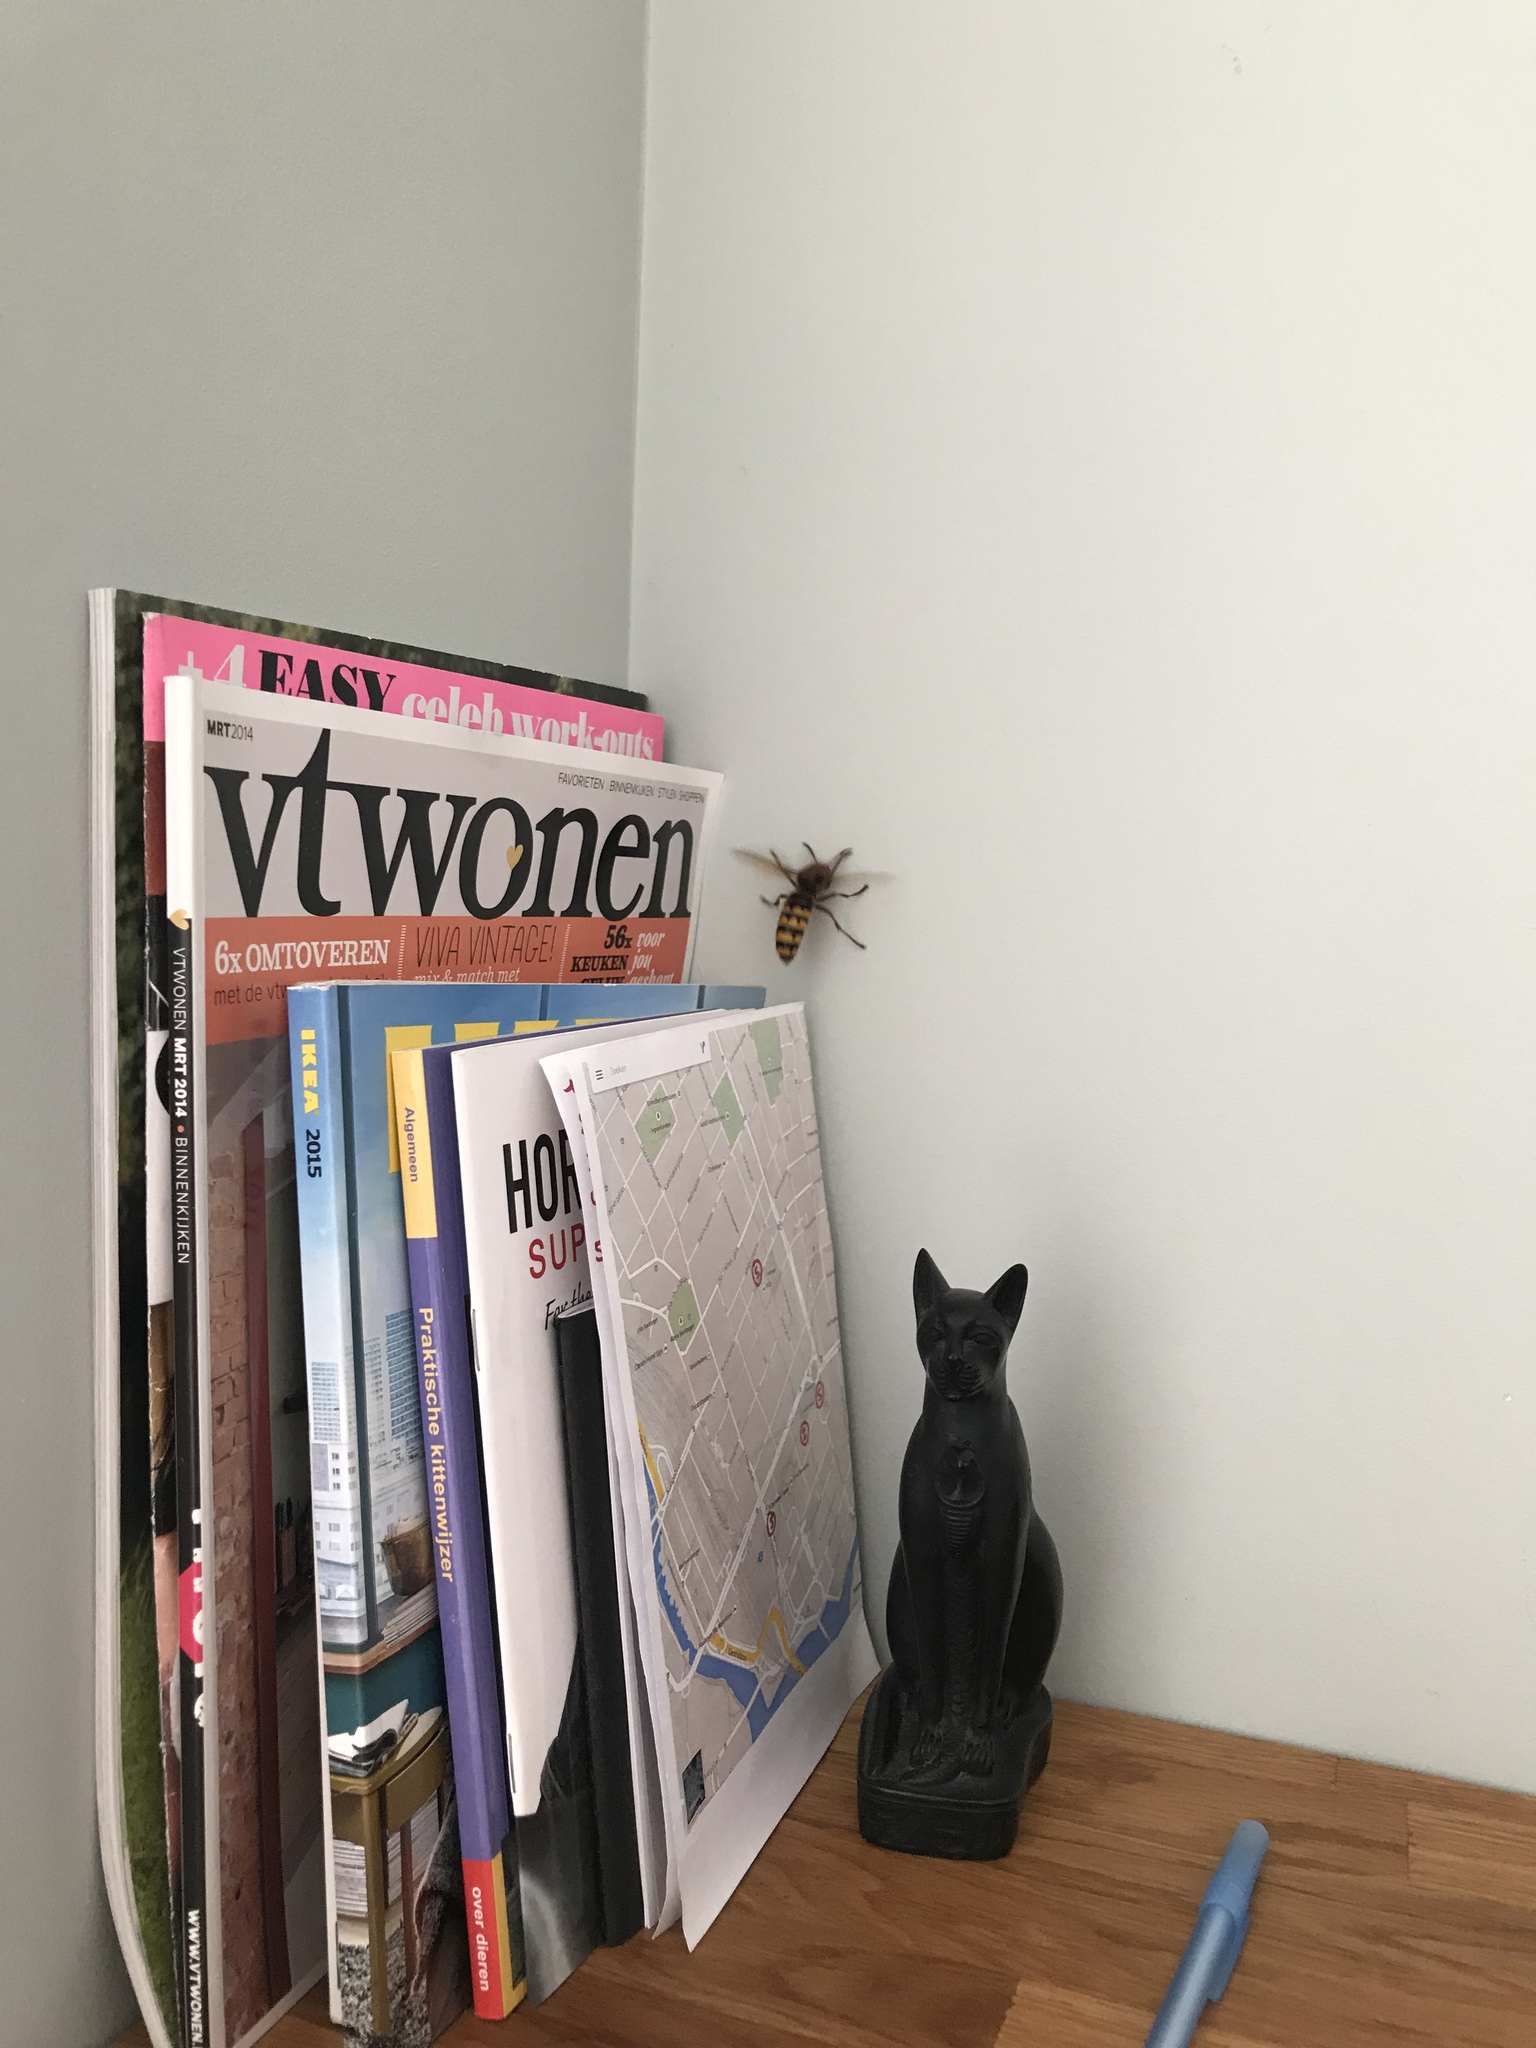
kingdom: Animalia
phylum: Arthropoda
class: Insecta
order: Hymenoptera
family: Vespidae
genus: Vespa
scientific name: Vespa crabro
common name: Hornet
